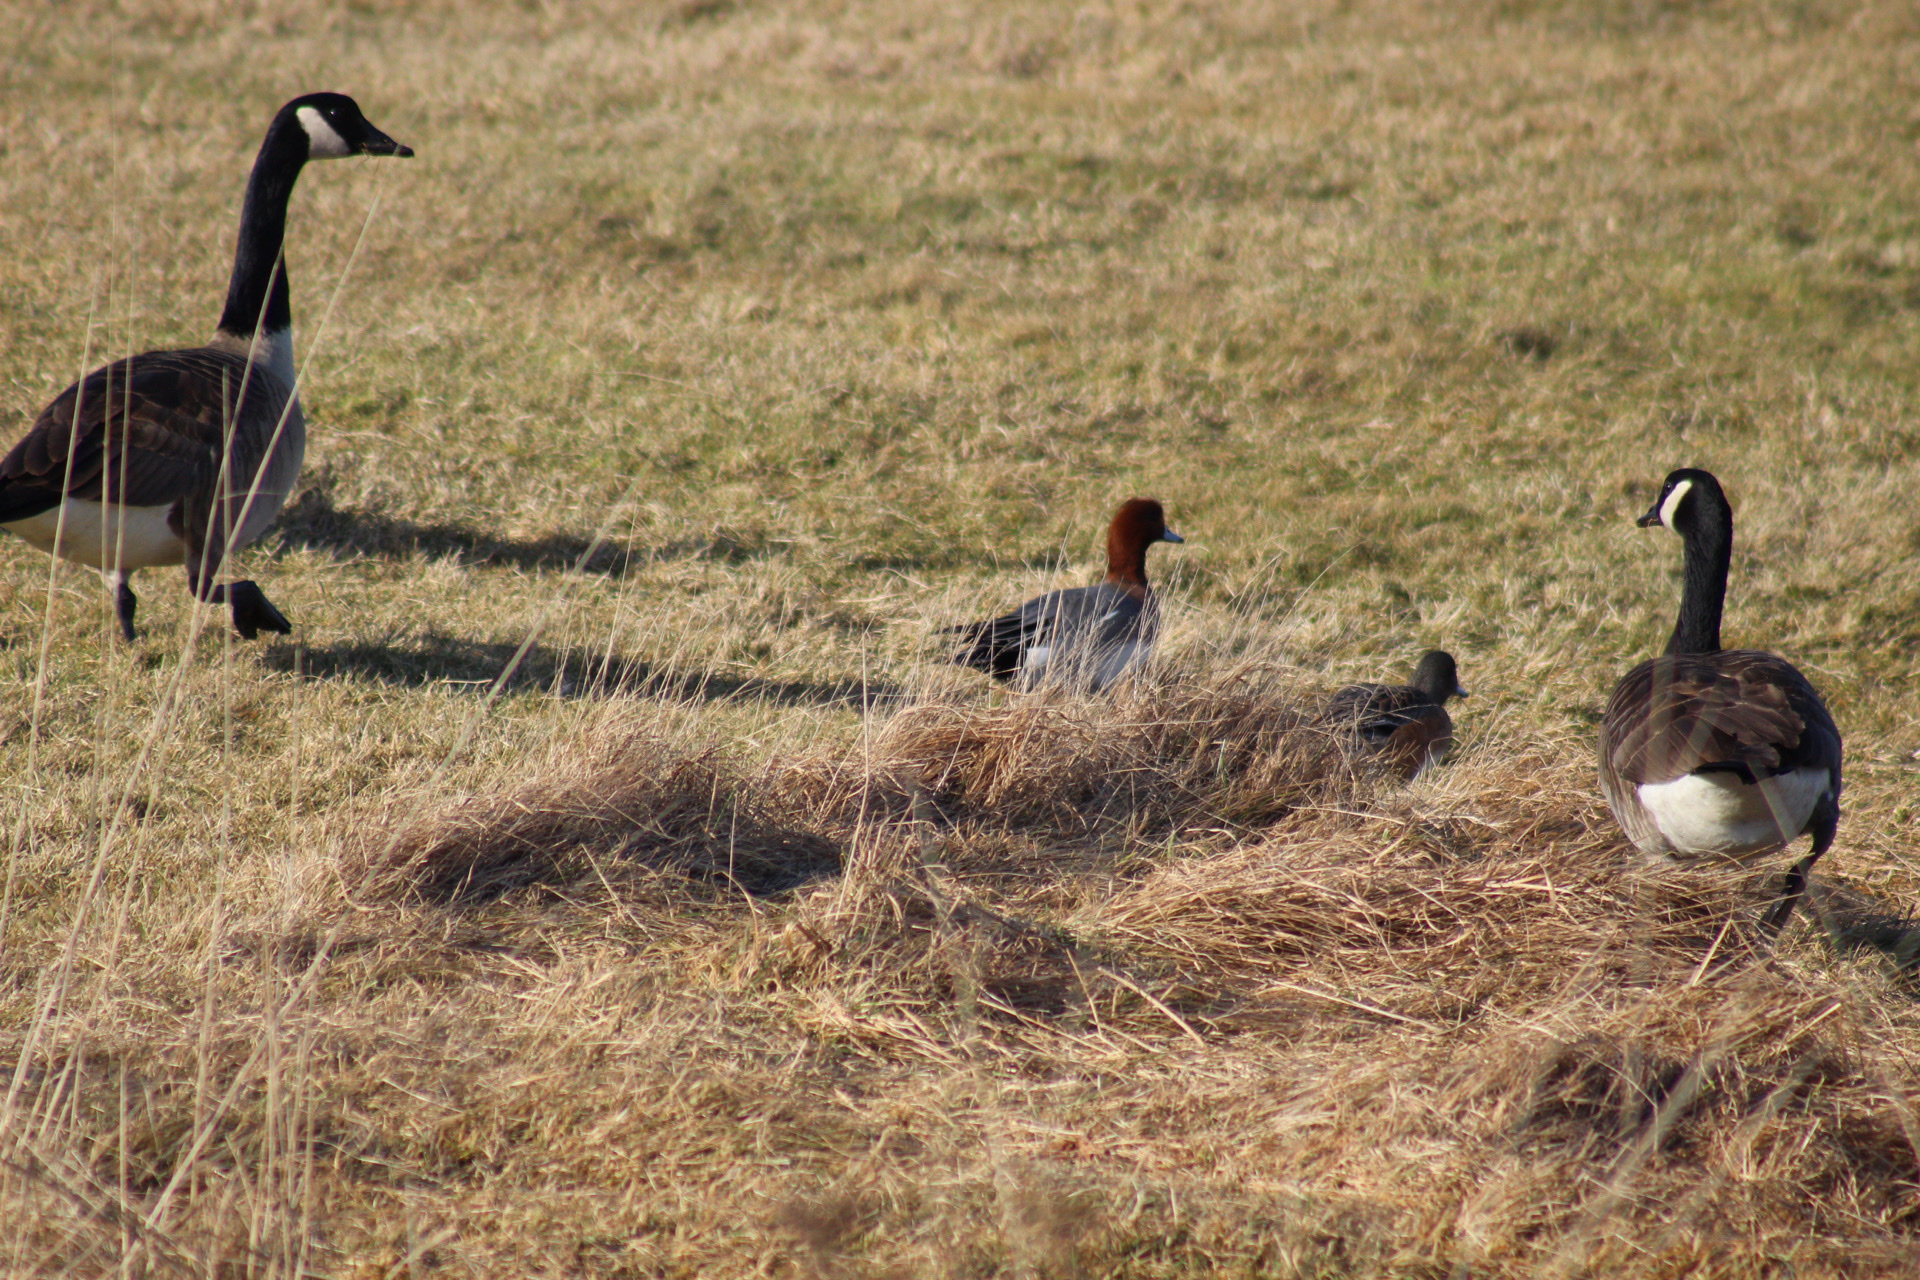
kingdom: Animalia
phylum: Chordata
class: Aves
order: Anseriformes
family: Anatidae
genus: Mareca
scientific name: Mareca penelope
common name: Eurasian wigeon
